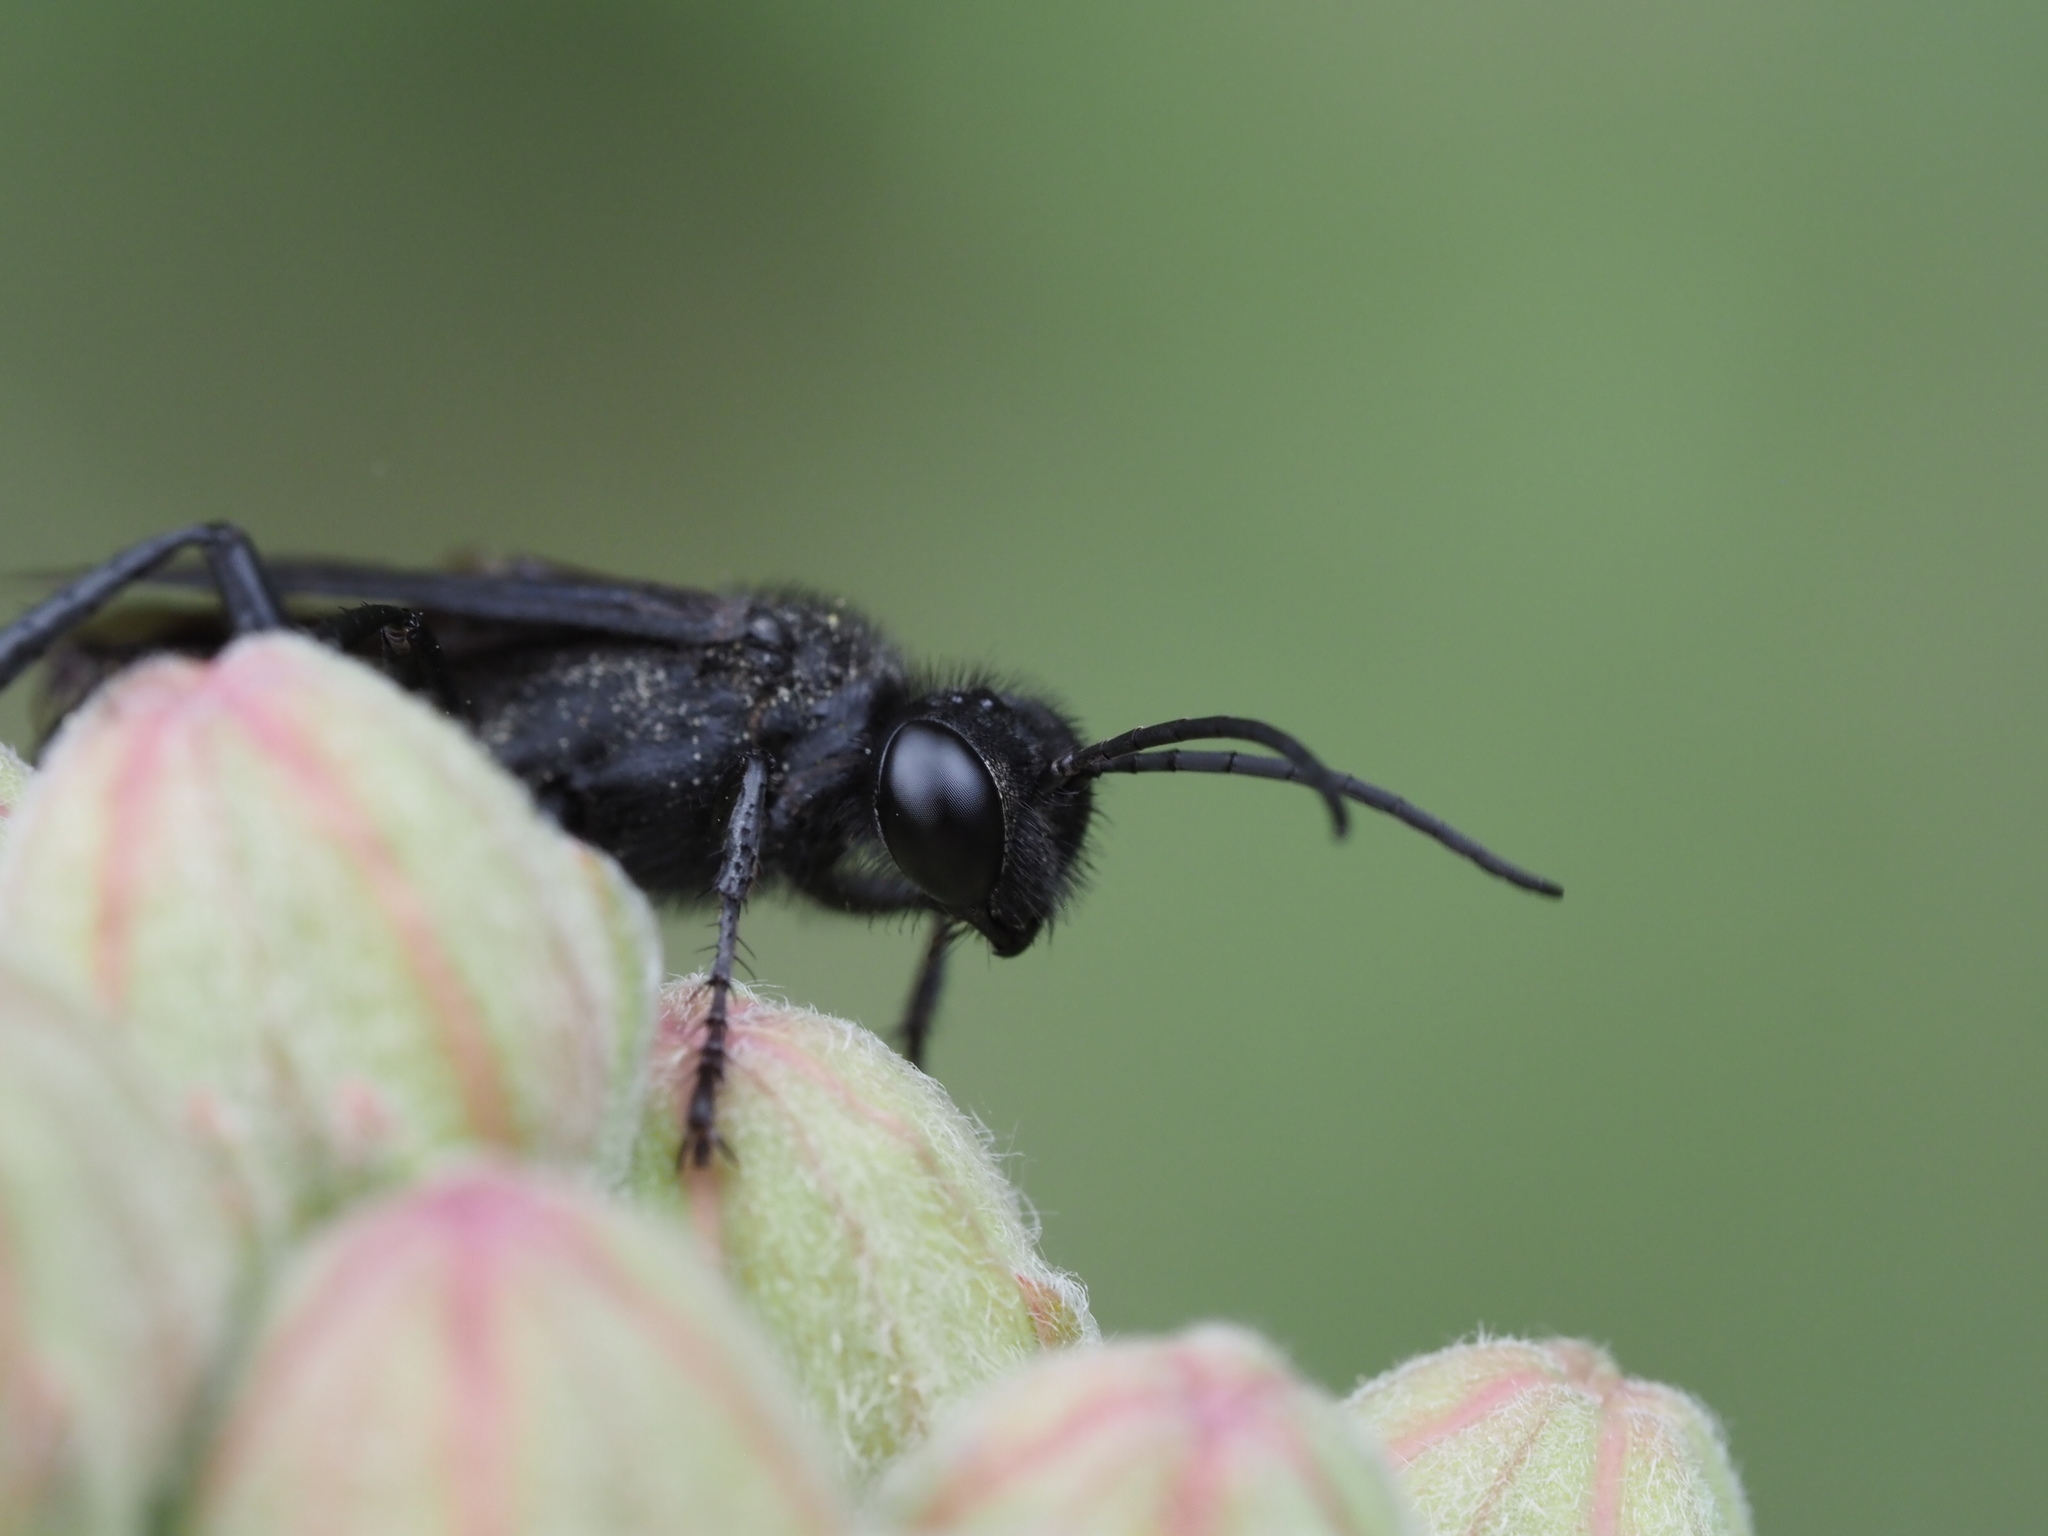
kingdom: Animalia
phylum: Arthropoda
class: Insecta
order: Hymenoptera
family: Sphecidae
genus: Prionyx
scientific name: Prionyx atratus
